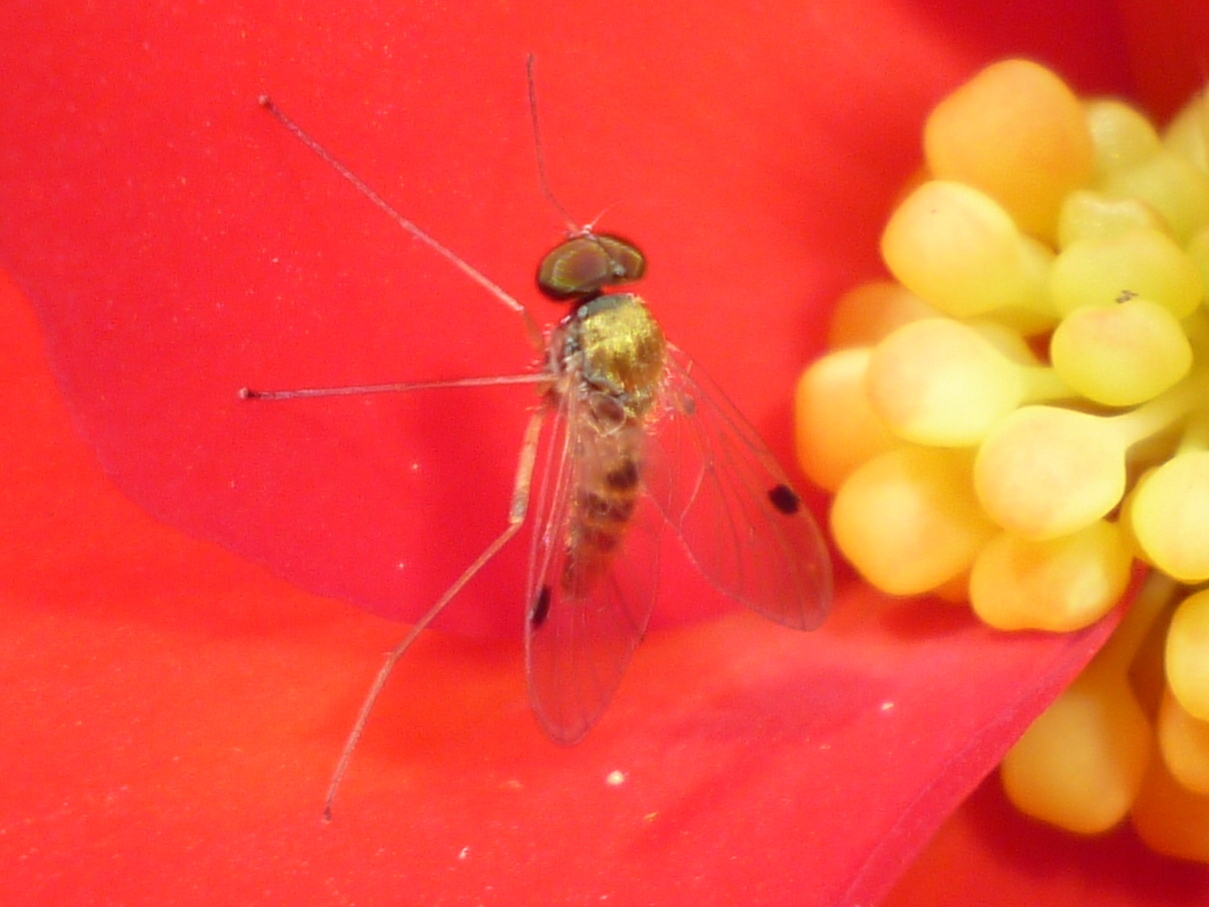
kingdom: Animalia
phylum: Arthropoda
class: Insecta
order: Diptera
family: Rhagionidae
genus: Chrysopilus
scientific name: Chrysopilus modestus
